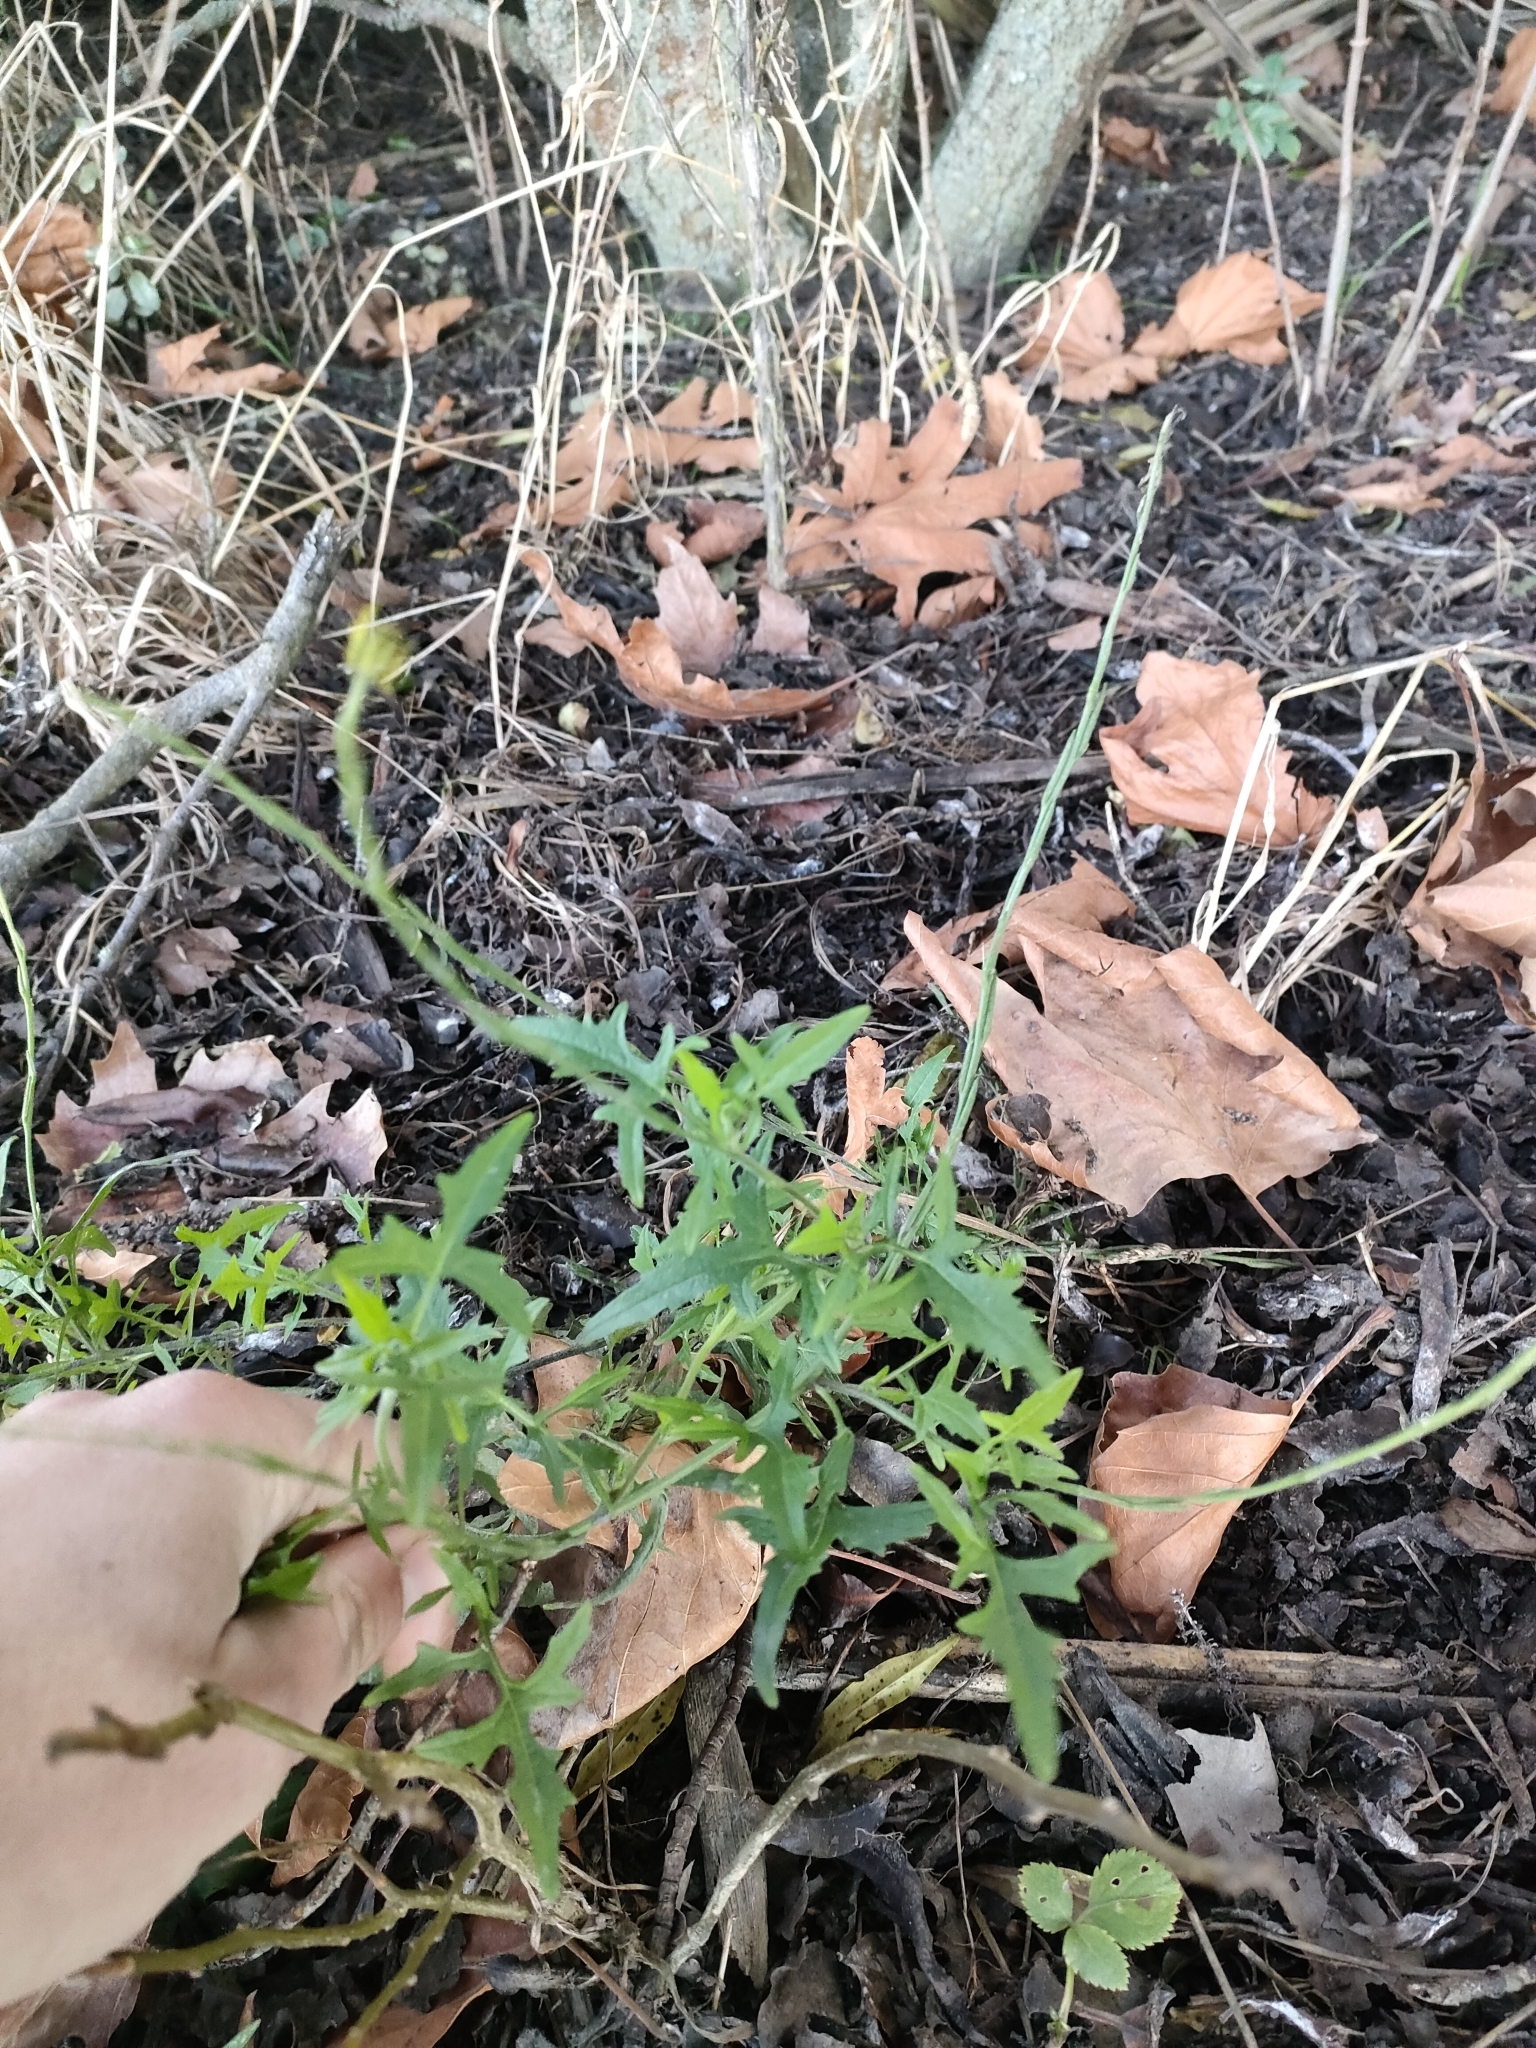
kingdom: Plantae
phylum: Tracheophyta
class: Magnoliopsida
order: Brassicales
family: Brassicaceae
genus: Sisymbrium
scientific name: Sisymbrium officinale
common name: Hedge mustard
